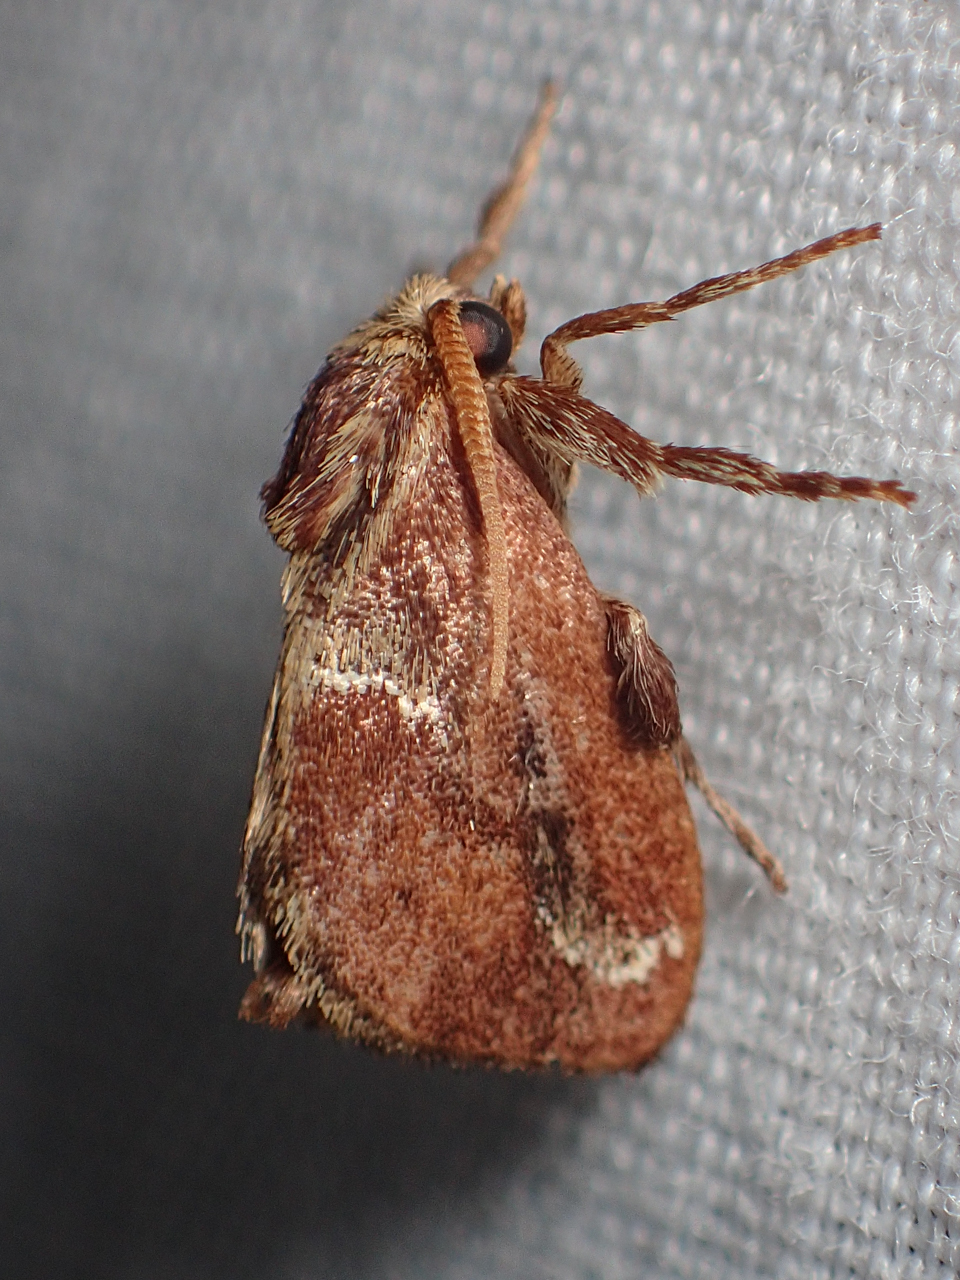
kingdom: Animalia
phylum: Arthropoda
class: Insecta
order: Lepidoptera
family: Limacodidae
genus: Adoneta
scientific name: Adoneta spinuloides
